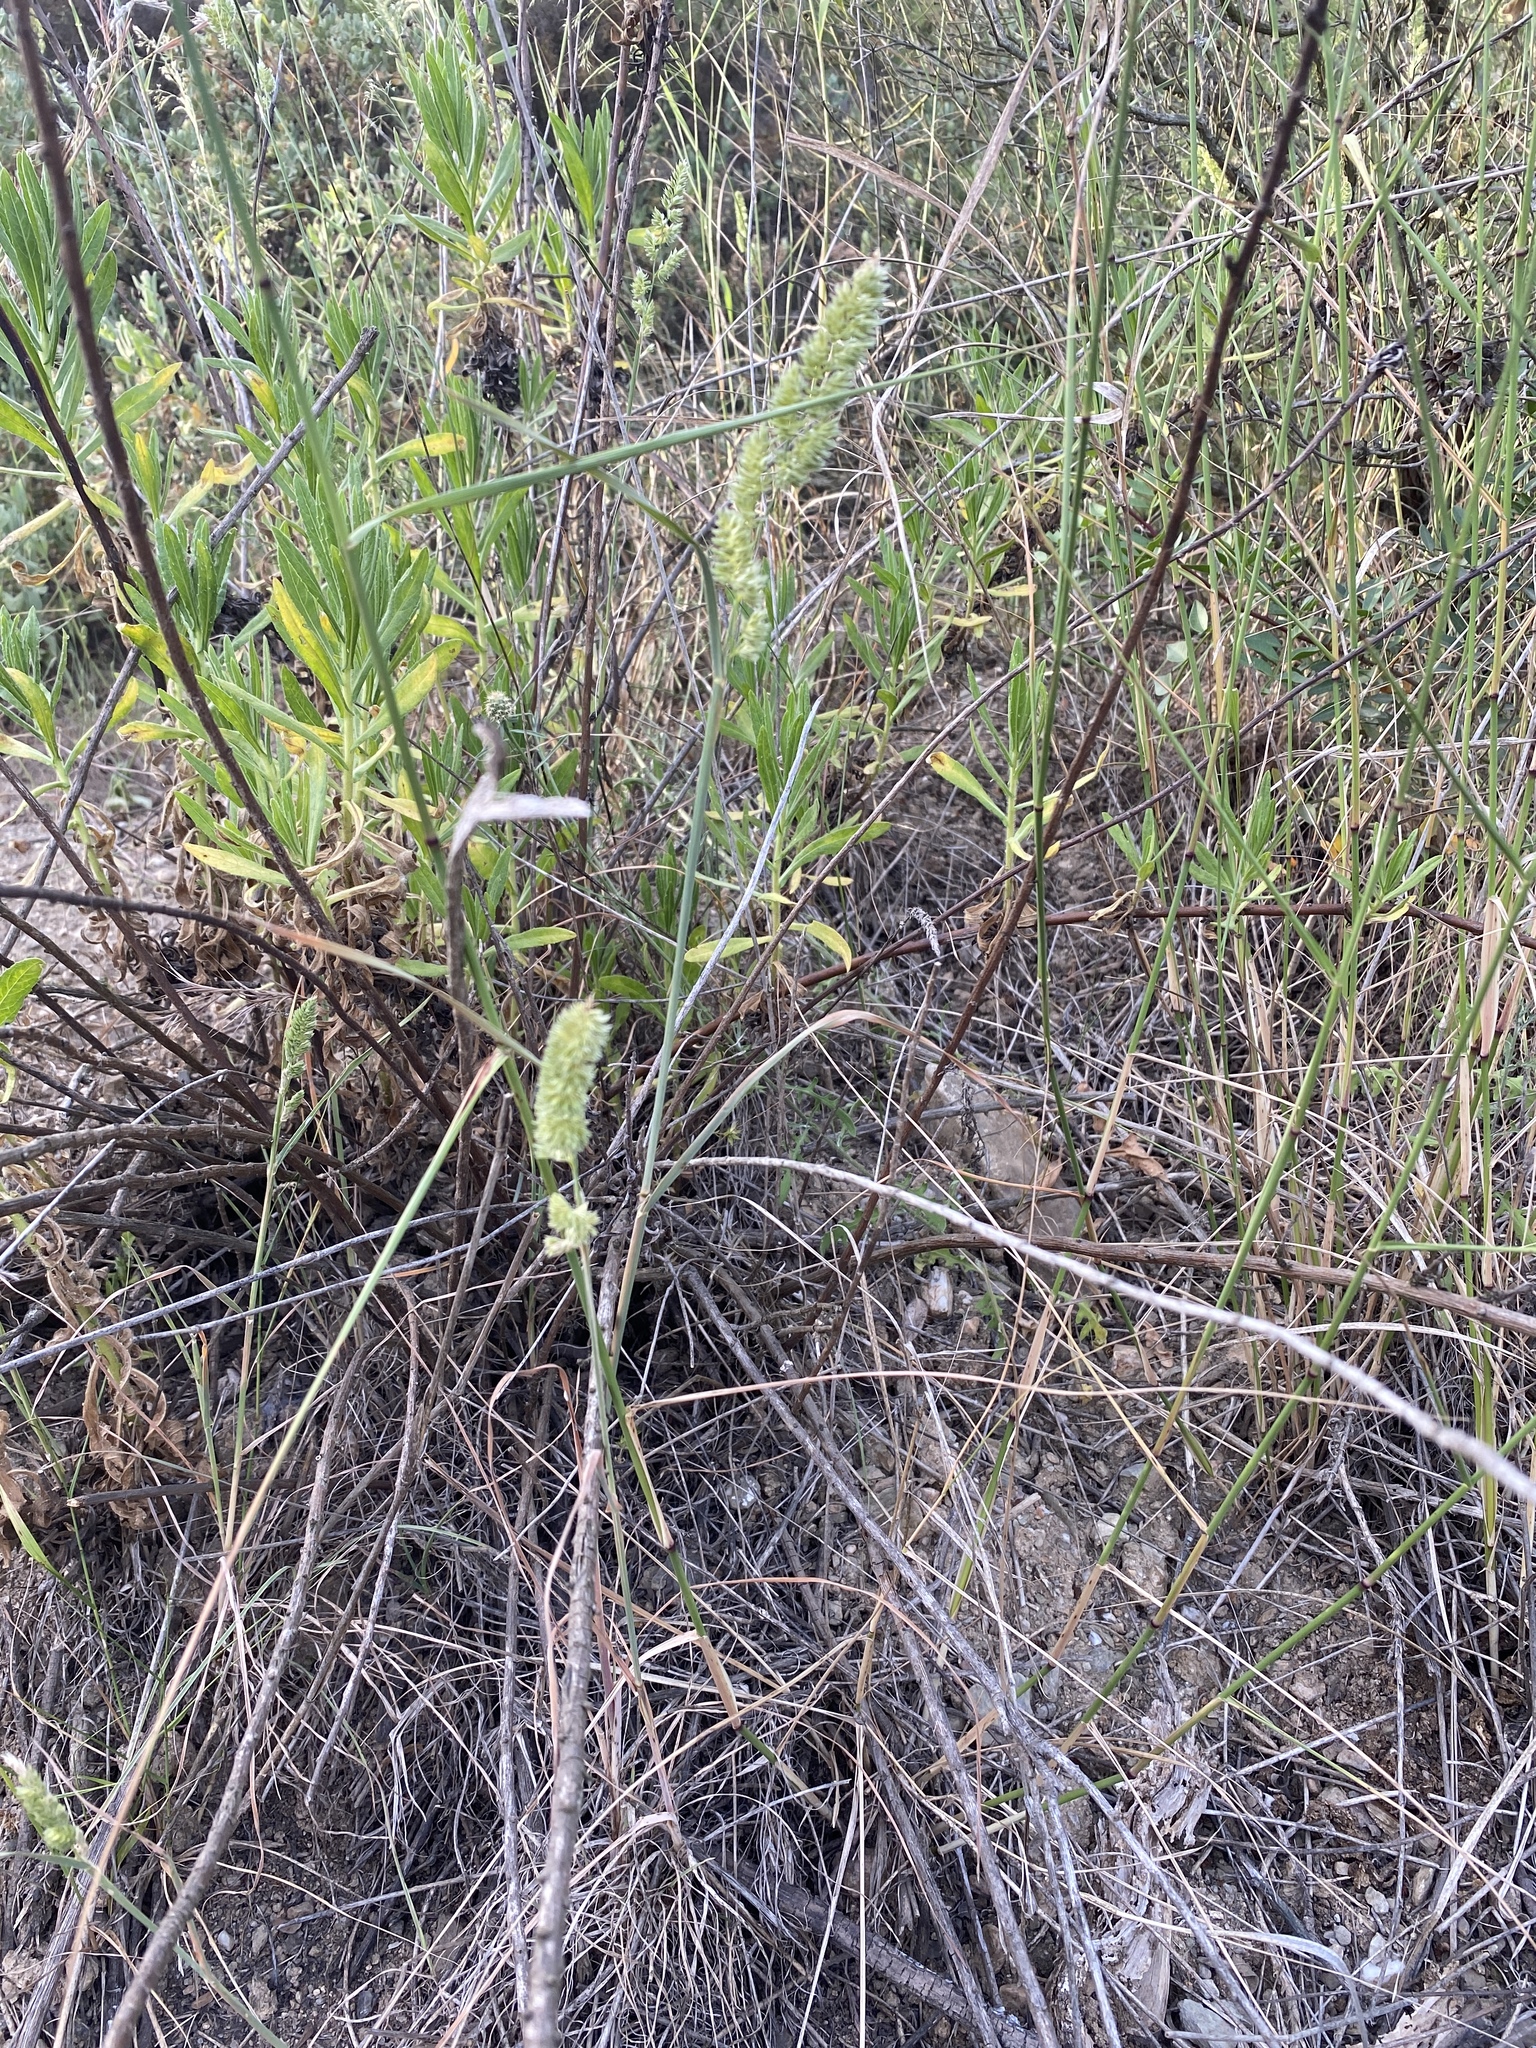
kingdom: Plantae
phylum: Tracheophyta
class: Liliopsida
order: Poales
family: Poaceae
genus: Dactylis
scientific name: Dactylis glomerata
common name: Orchardgrass
